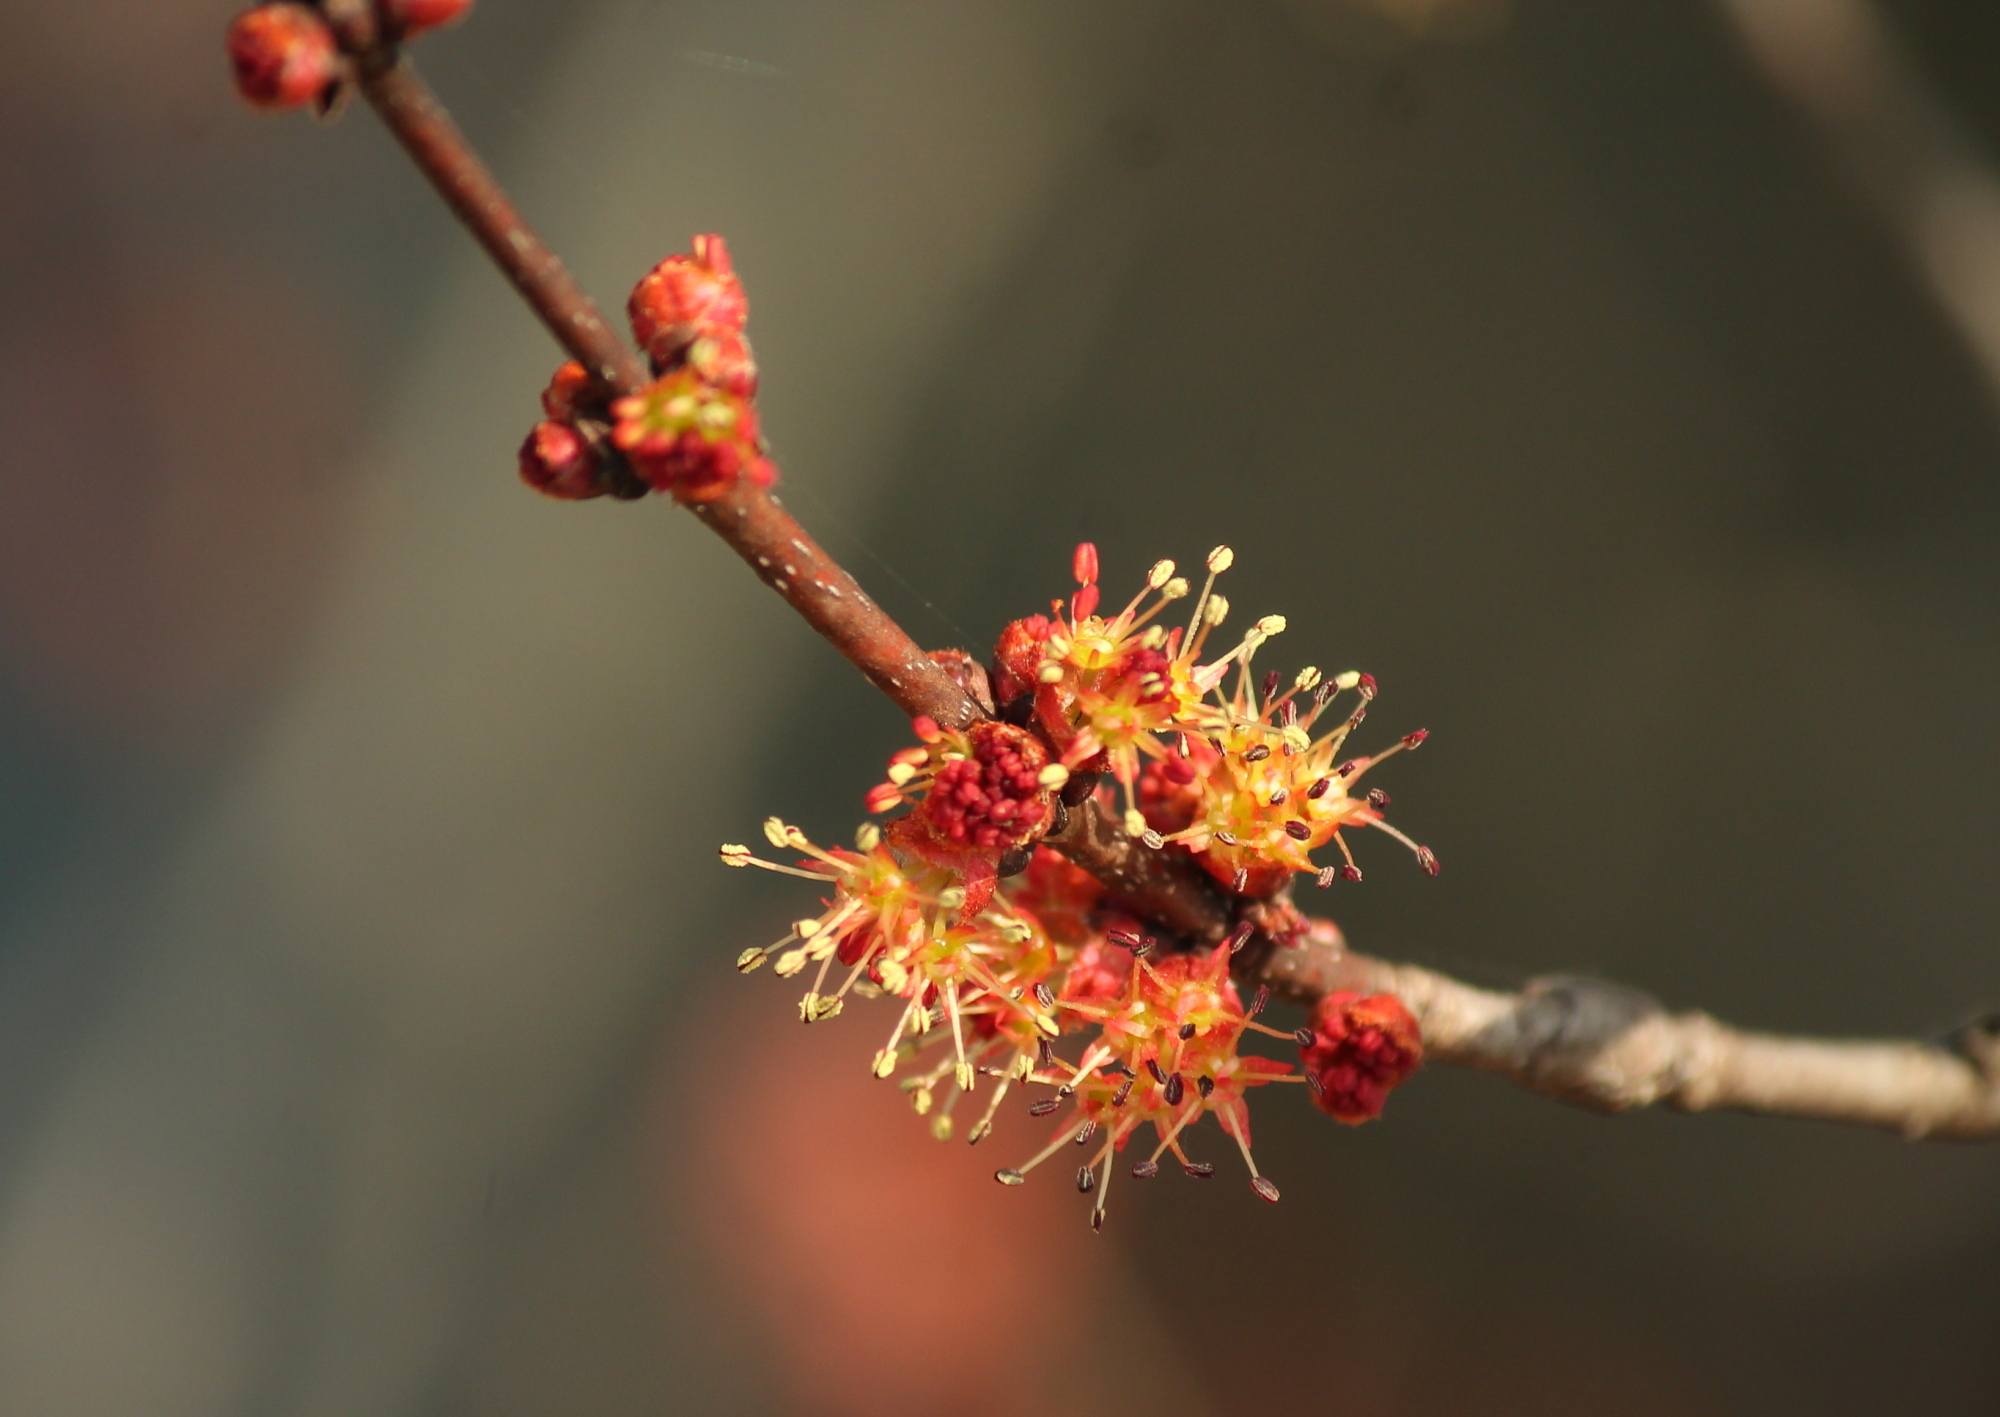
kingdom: Plantae
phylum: Tracheophyta
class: Magnoliopsida
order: Sapindales
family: Sapindaceae
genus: Acer
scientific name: Acer rubrum
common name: Red maple
